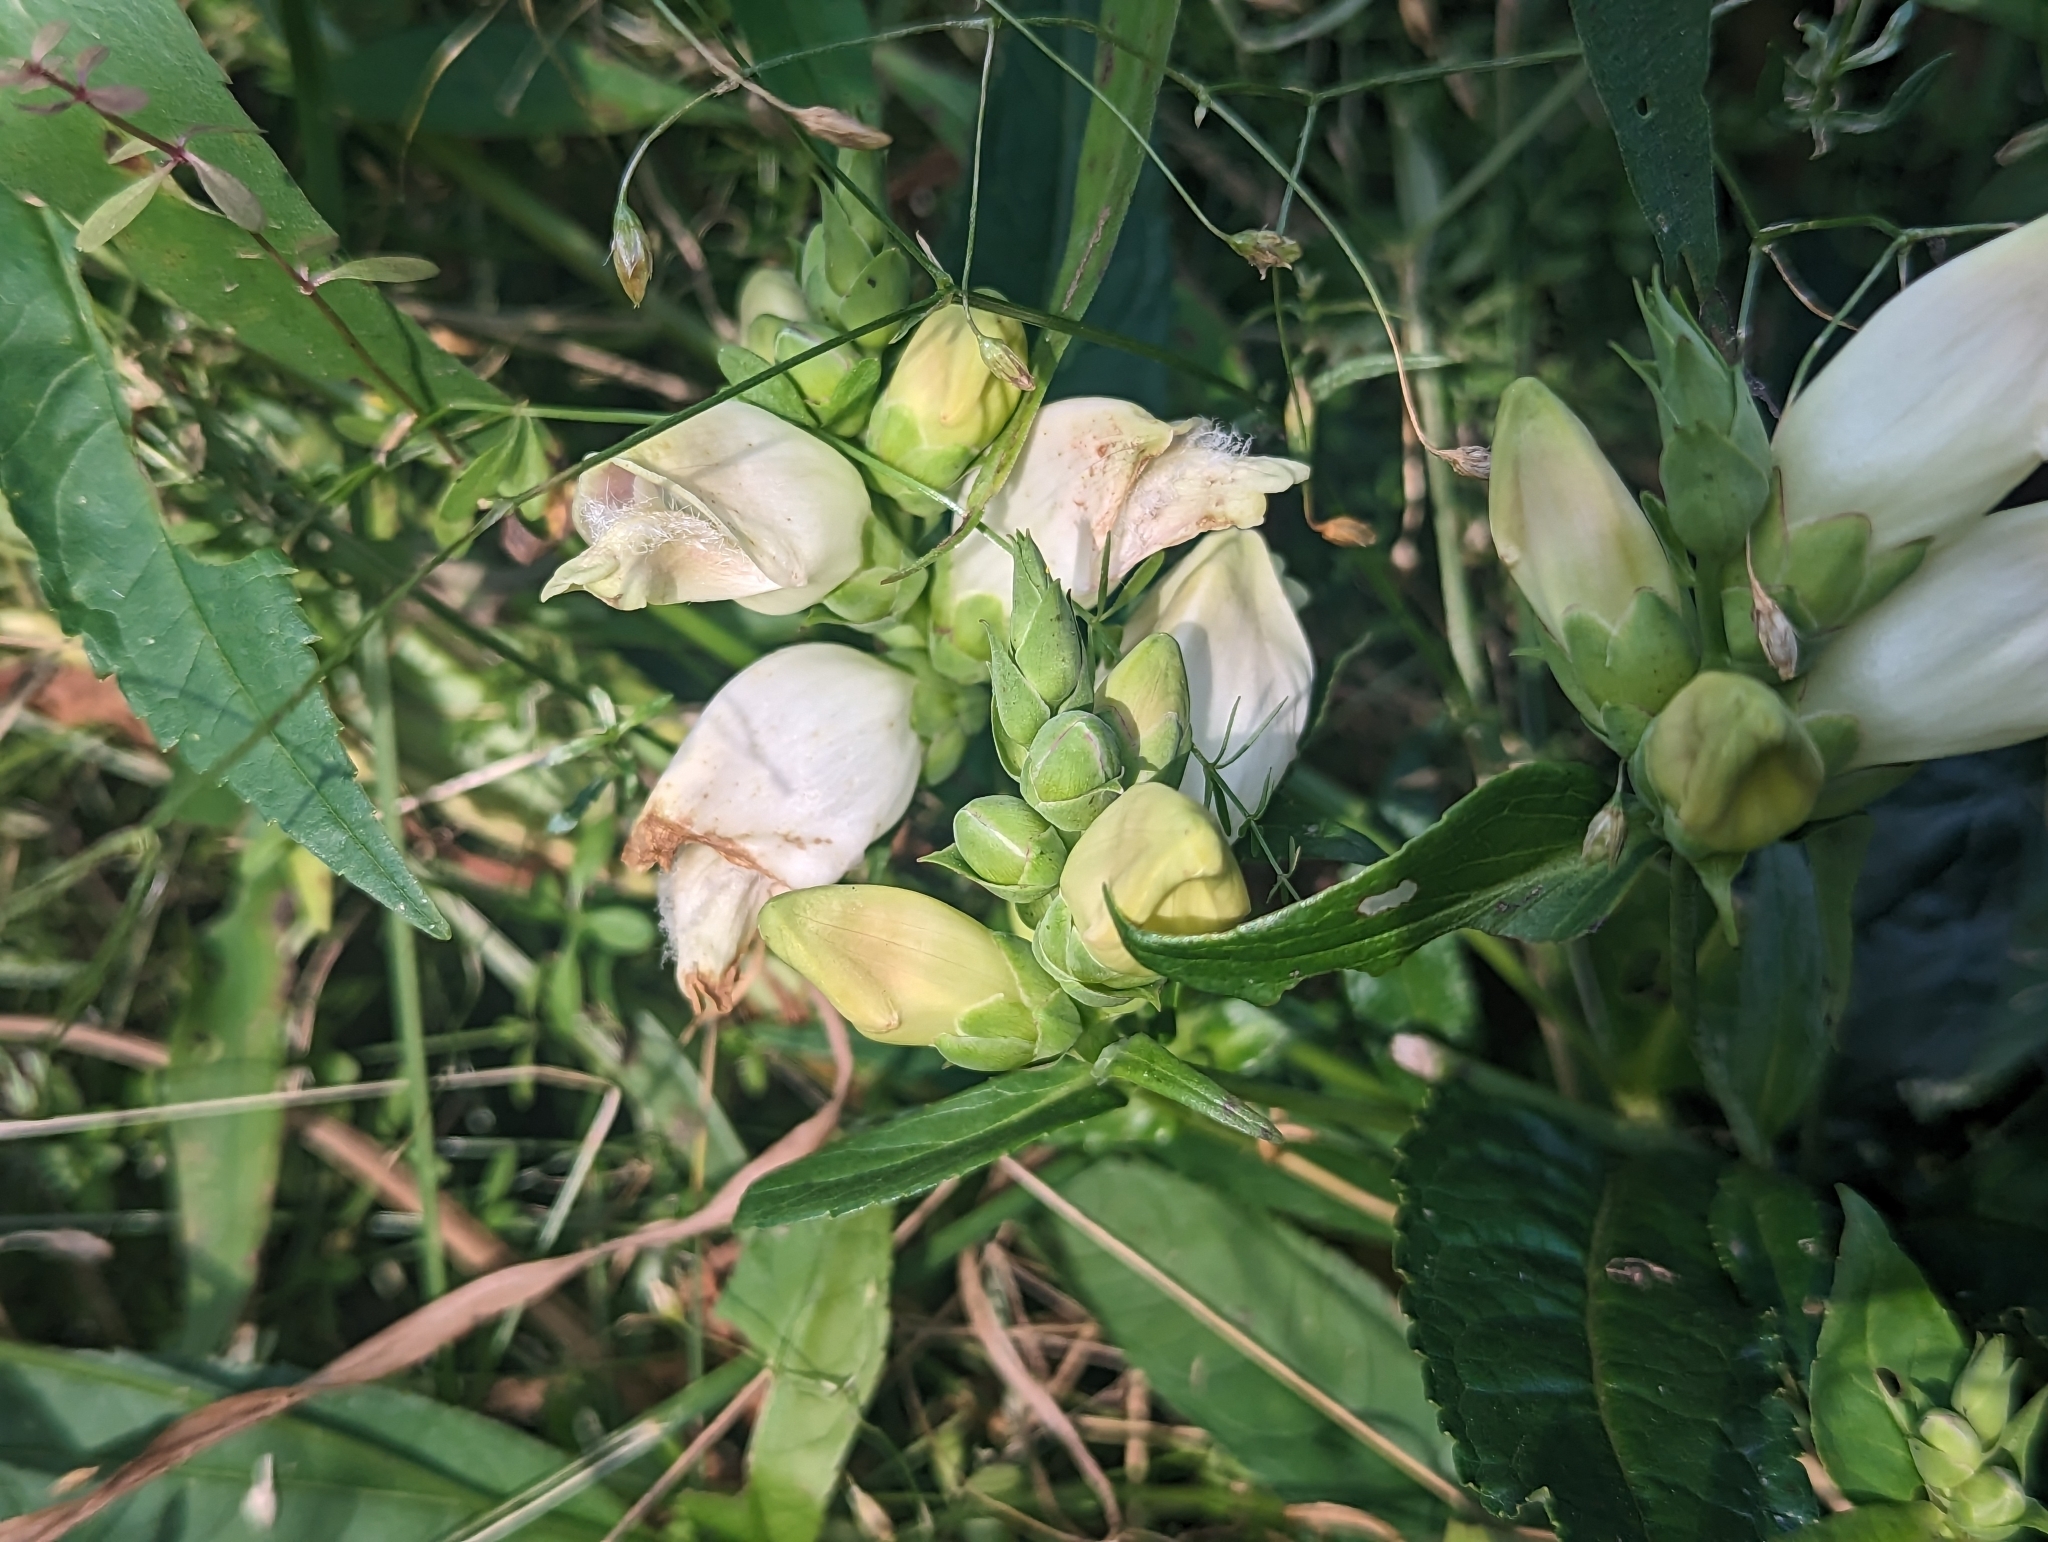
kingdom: Plantae
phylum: Tracheophyta
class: Magnoliopsida
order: Lamiales
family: Plantaginaceae
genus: Chelone
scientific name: Chelone glabra
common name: Snakehead
